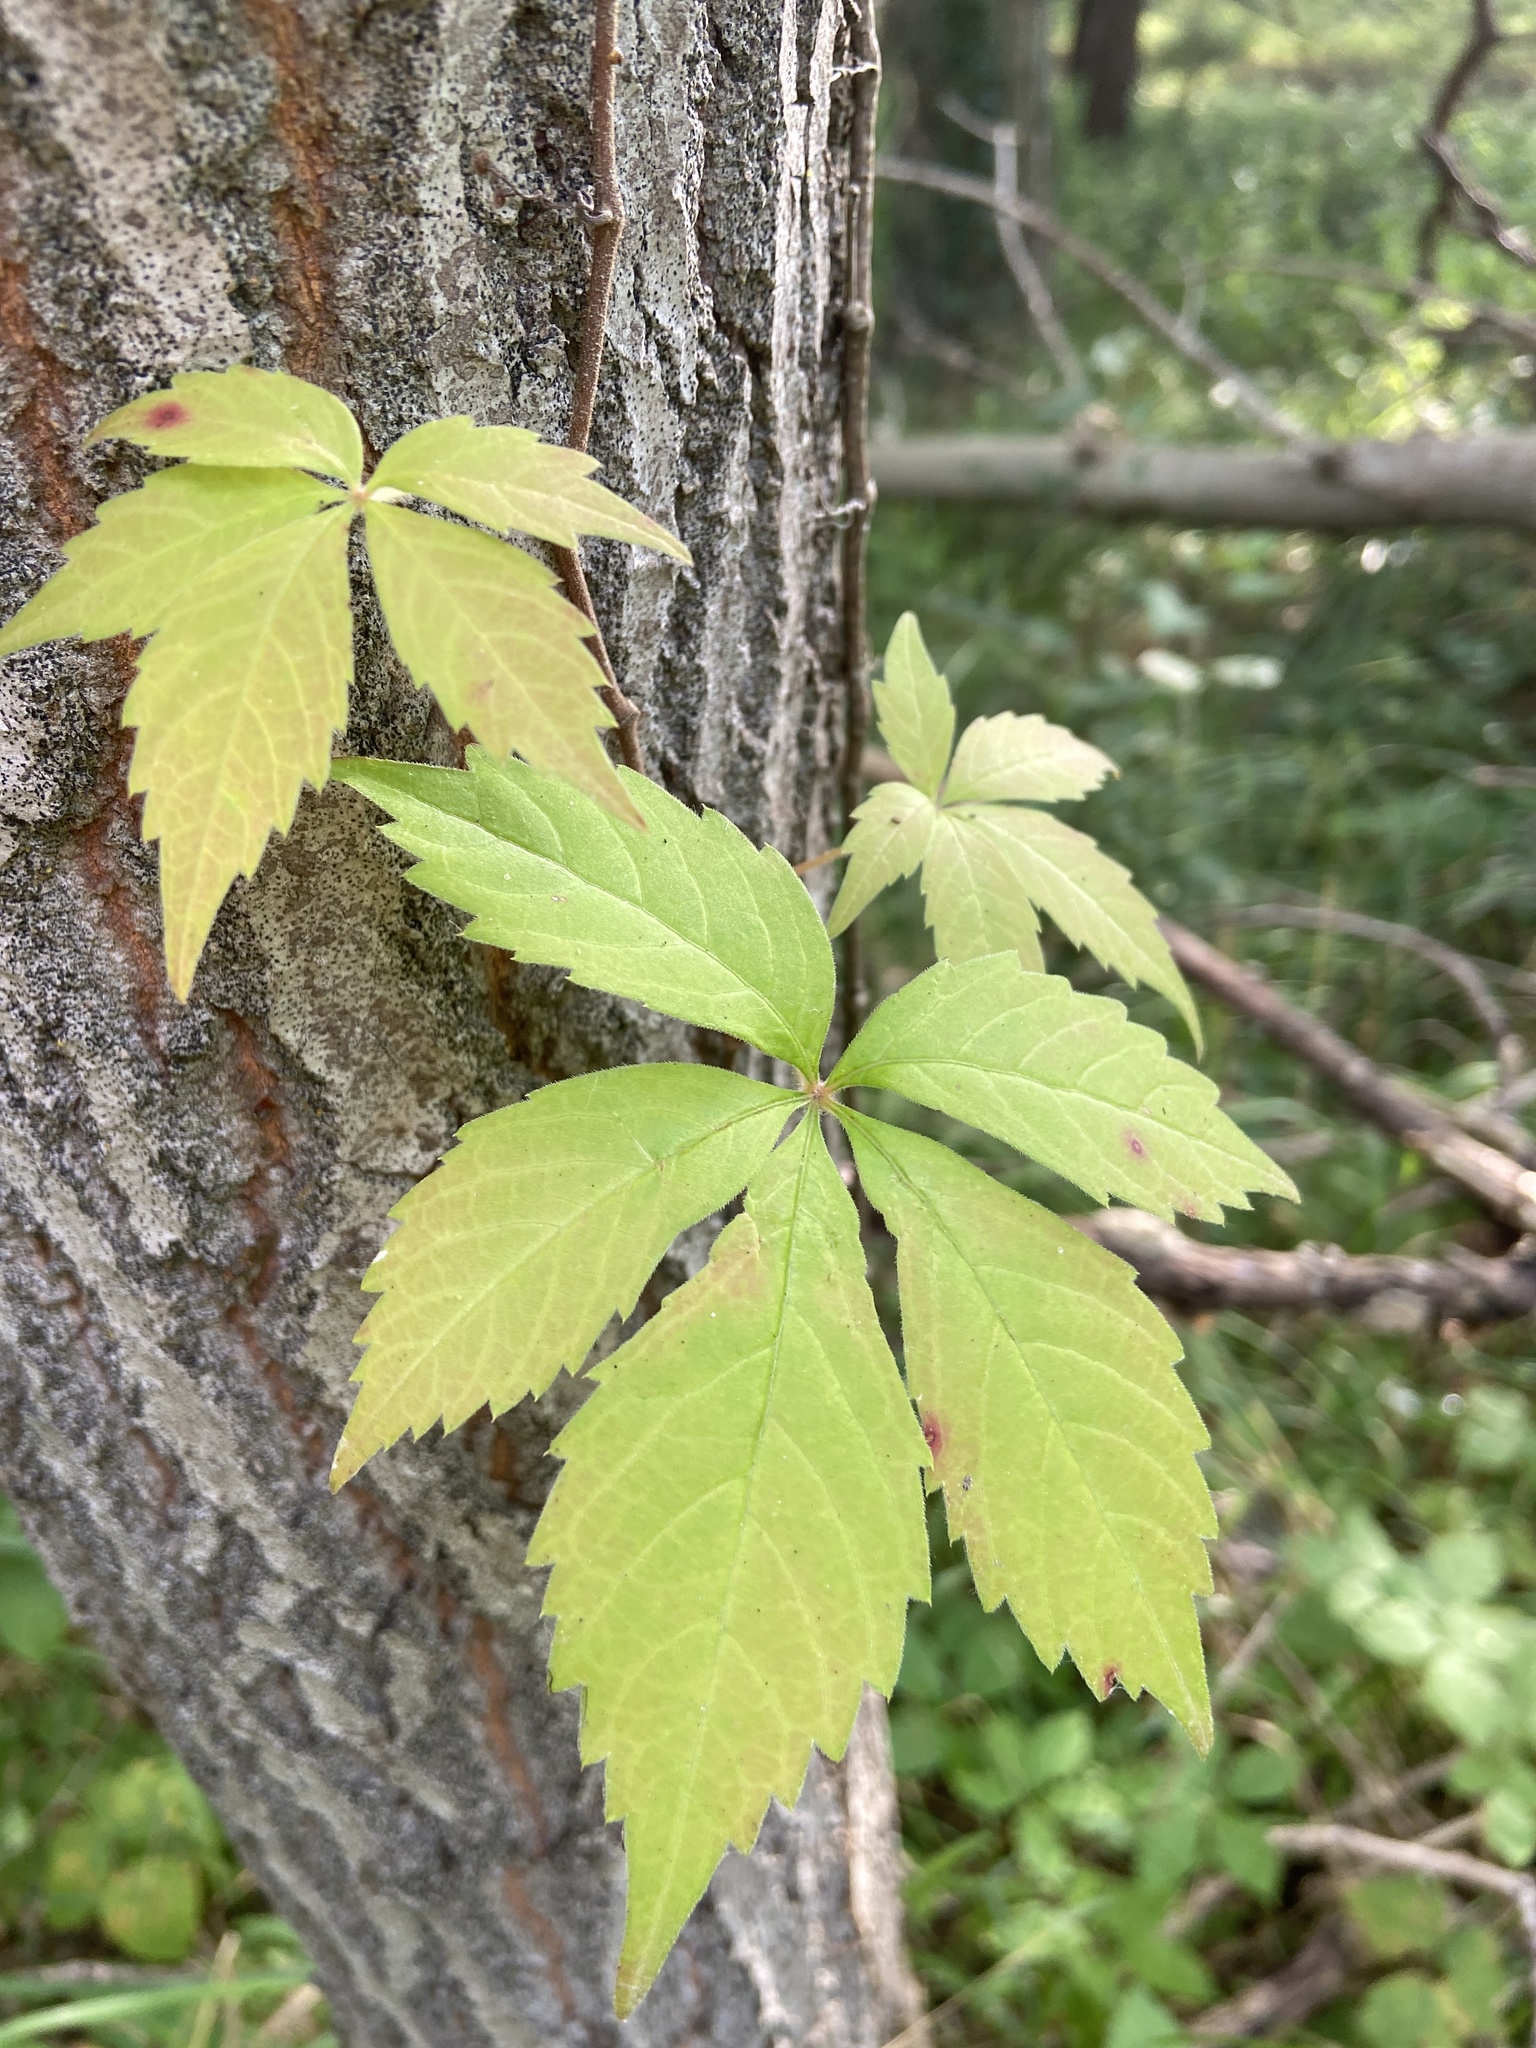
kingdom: Plantae
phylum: Tracheophyta
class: Magnoliopsida
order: Vitales
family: Vitaceae
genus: Parthenocissus
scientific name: Parthenocissus quinquefolia
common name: Virginia-creeper
